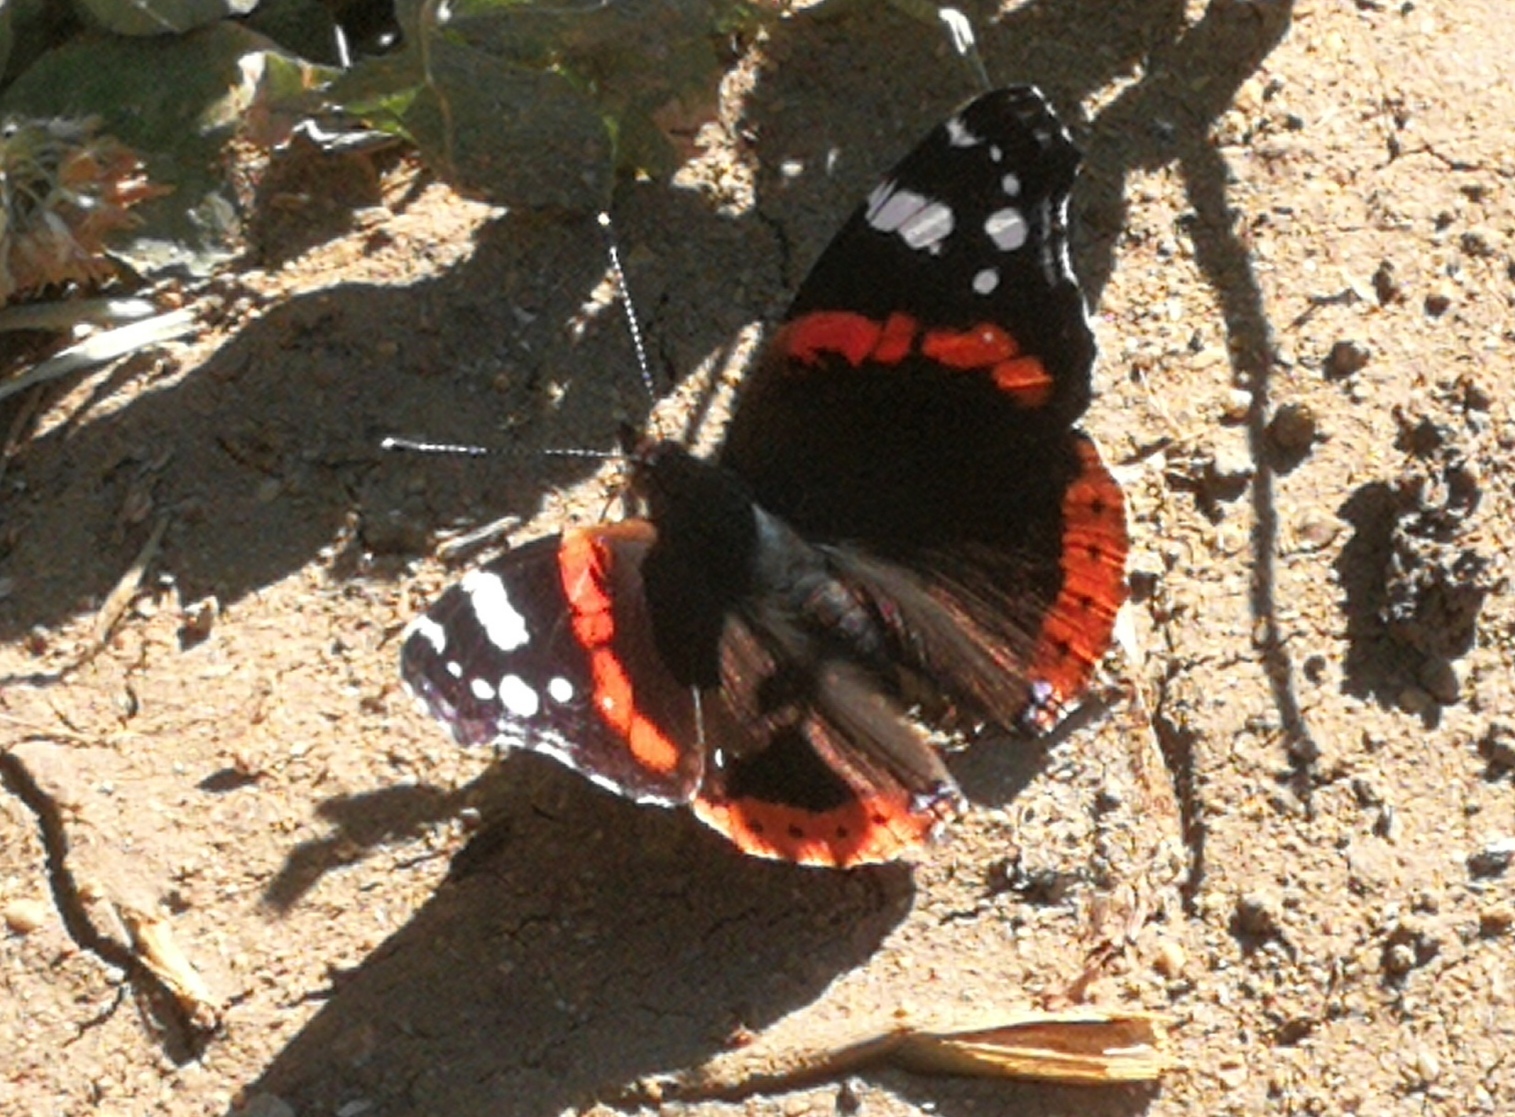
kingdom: Animalia
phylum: Arthropoda
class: Insecta
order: Lepidoptera
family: Nymphalidae
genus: Vanessa
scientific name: Vanessa atalanta
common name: Red admiral
